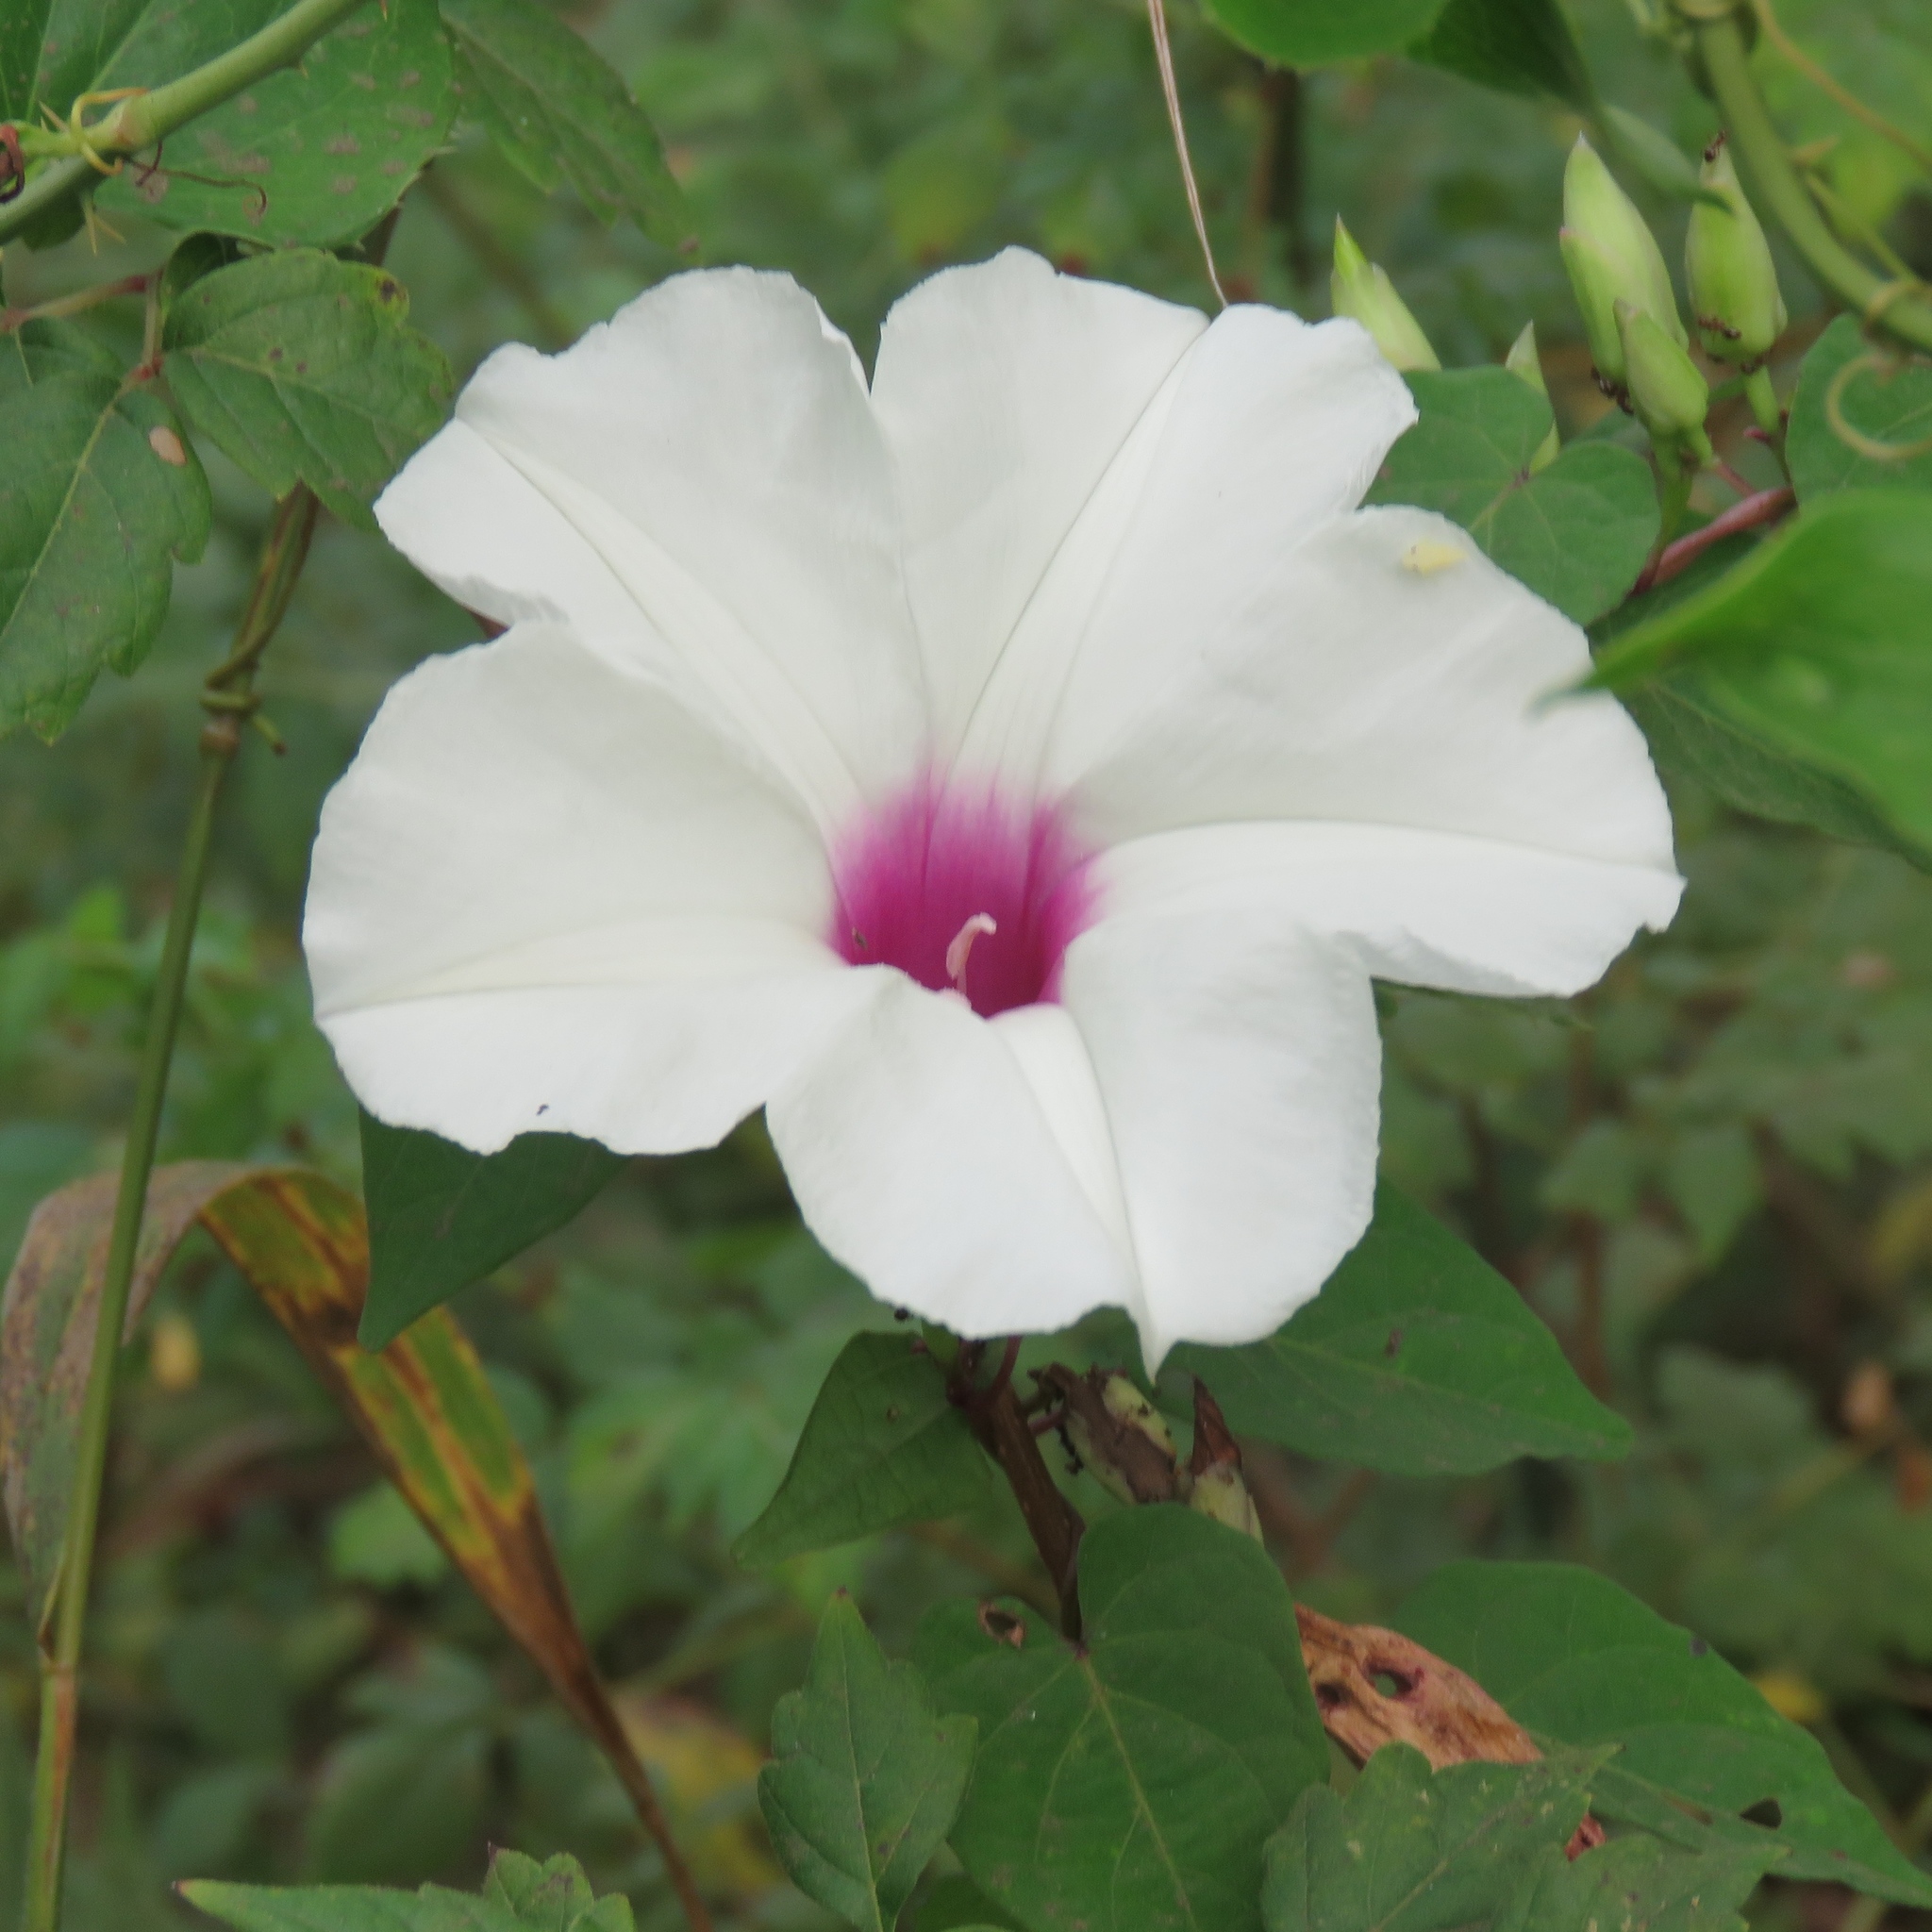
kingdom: Plantae
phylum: Tracheophyta
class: Magnoliopsida
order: Solanales
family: Convolvulaceae
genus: Ipomoea
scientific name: Ipomoea pandurata
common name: Man-of-the-earth
